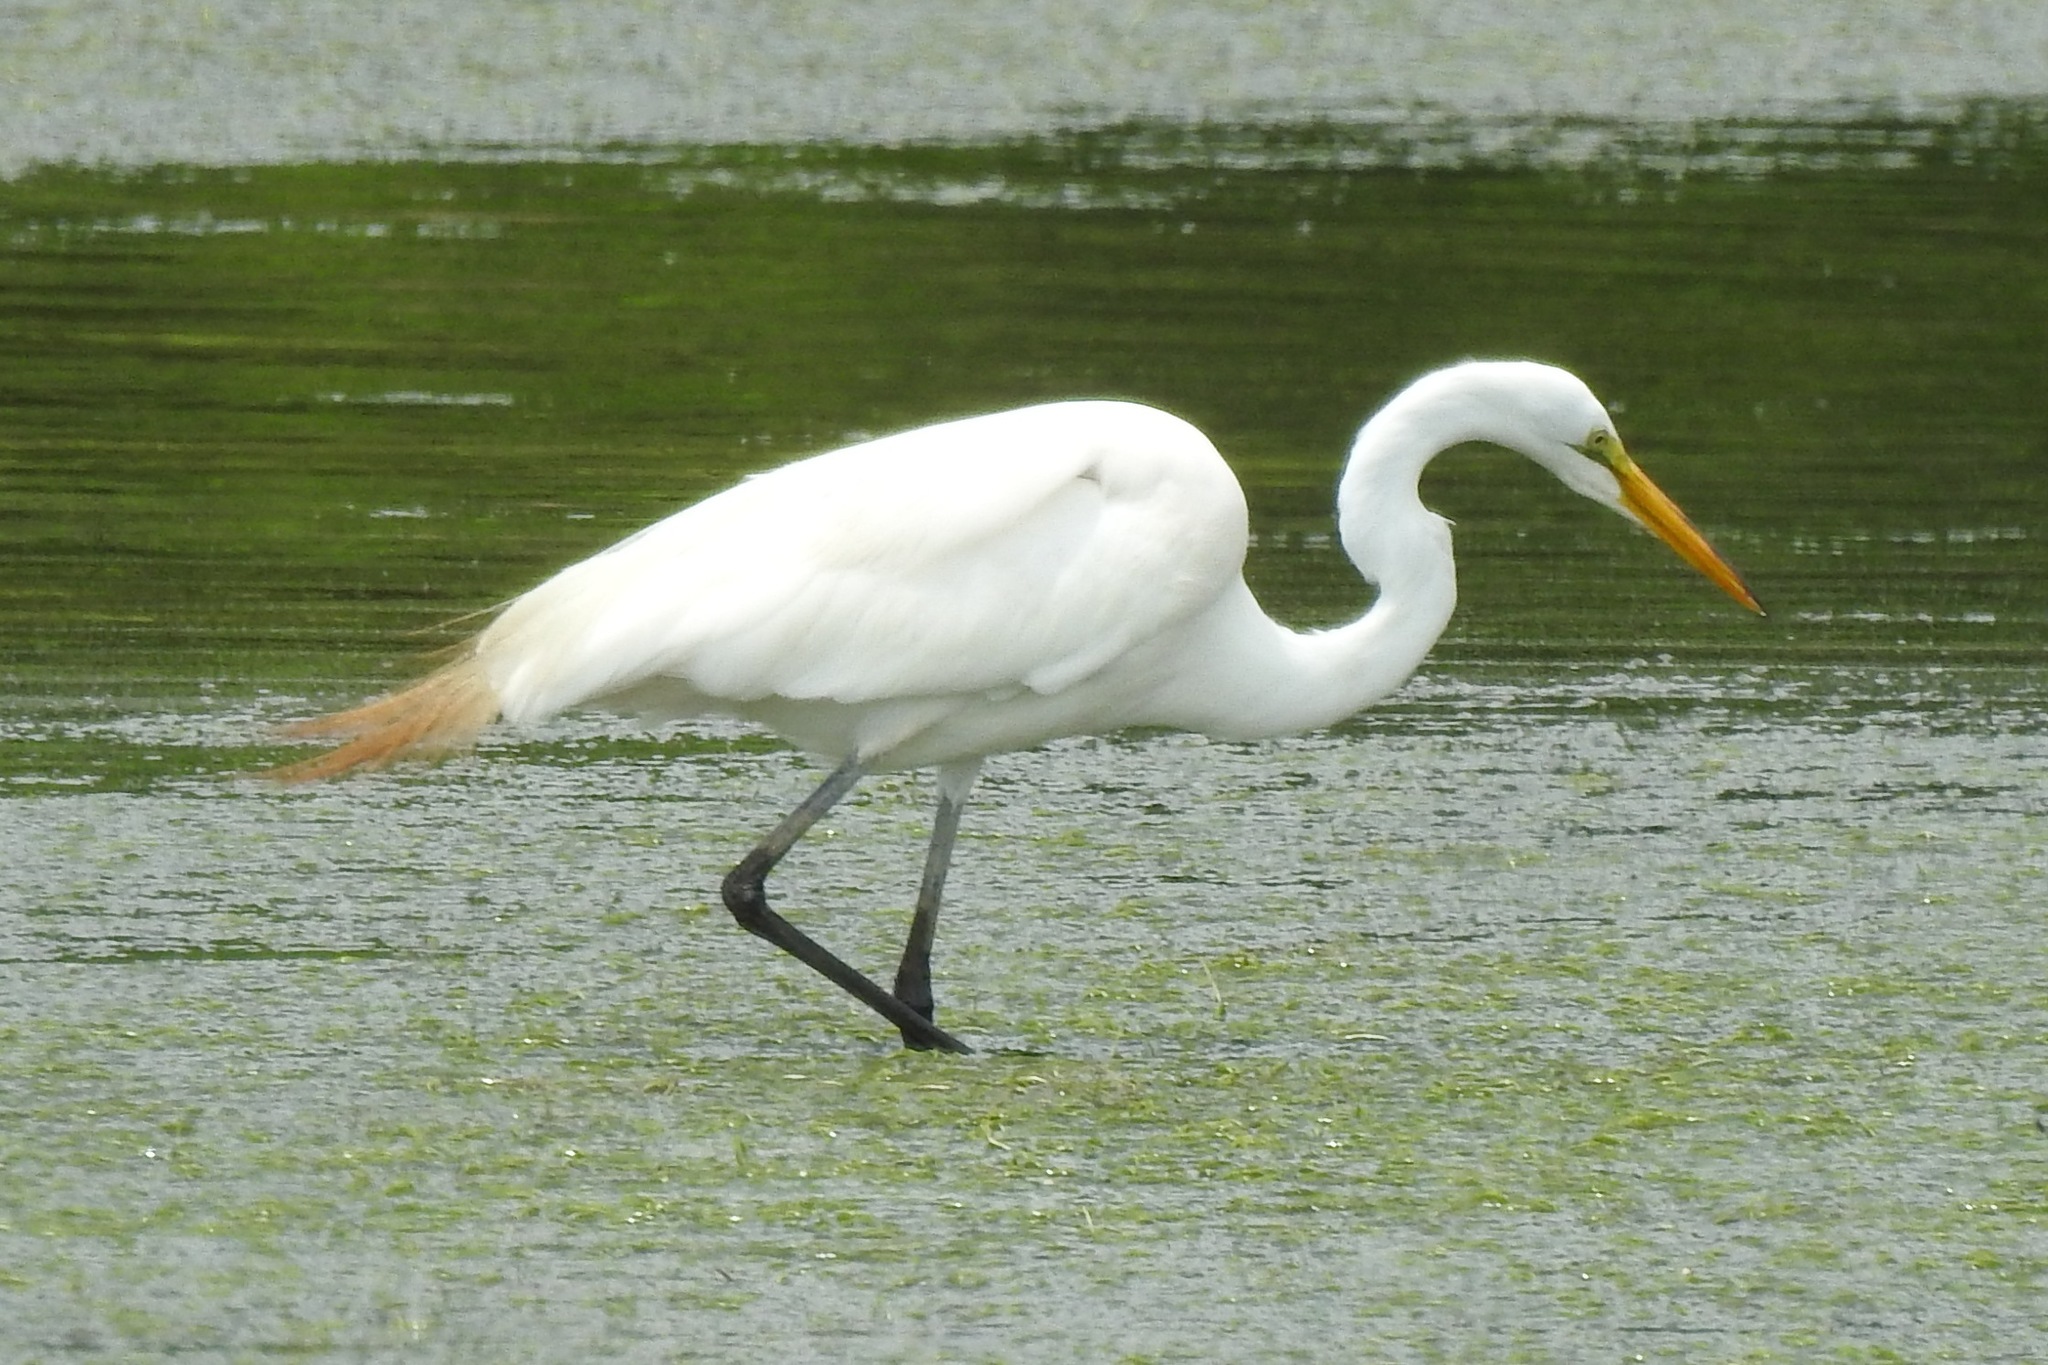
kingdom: Animalia
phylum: Chordata
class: Aves
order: Pelecaniformes
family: Ardeidae
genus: Ardea
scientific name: Ardea alba
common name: Great egret
